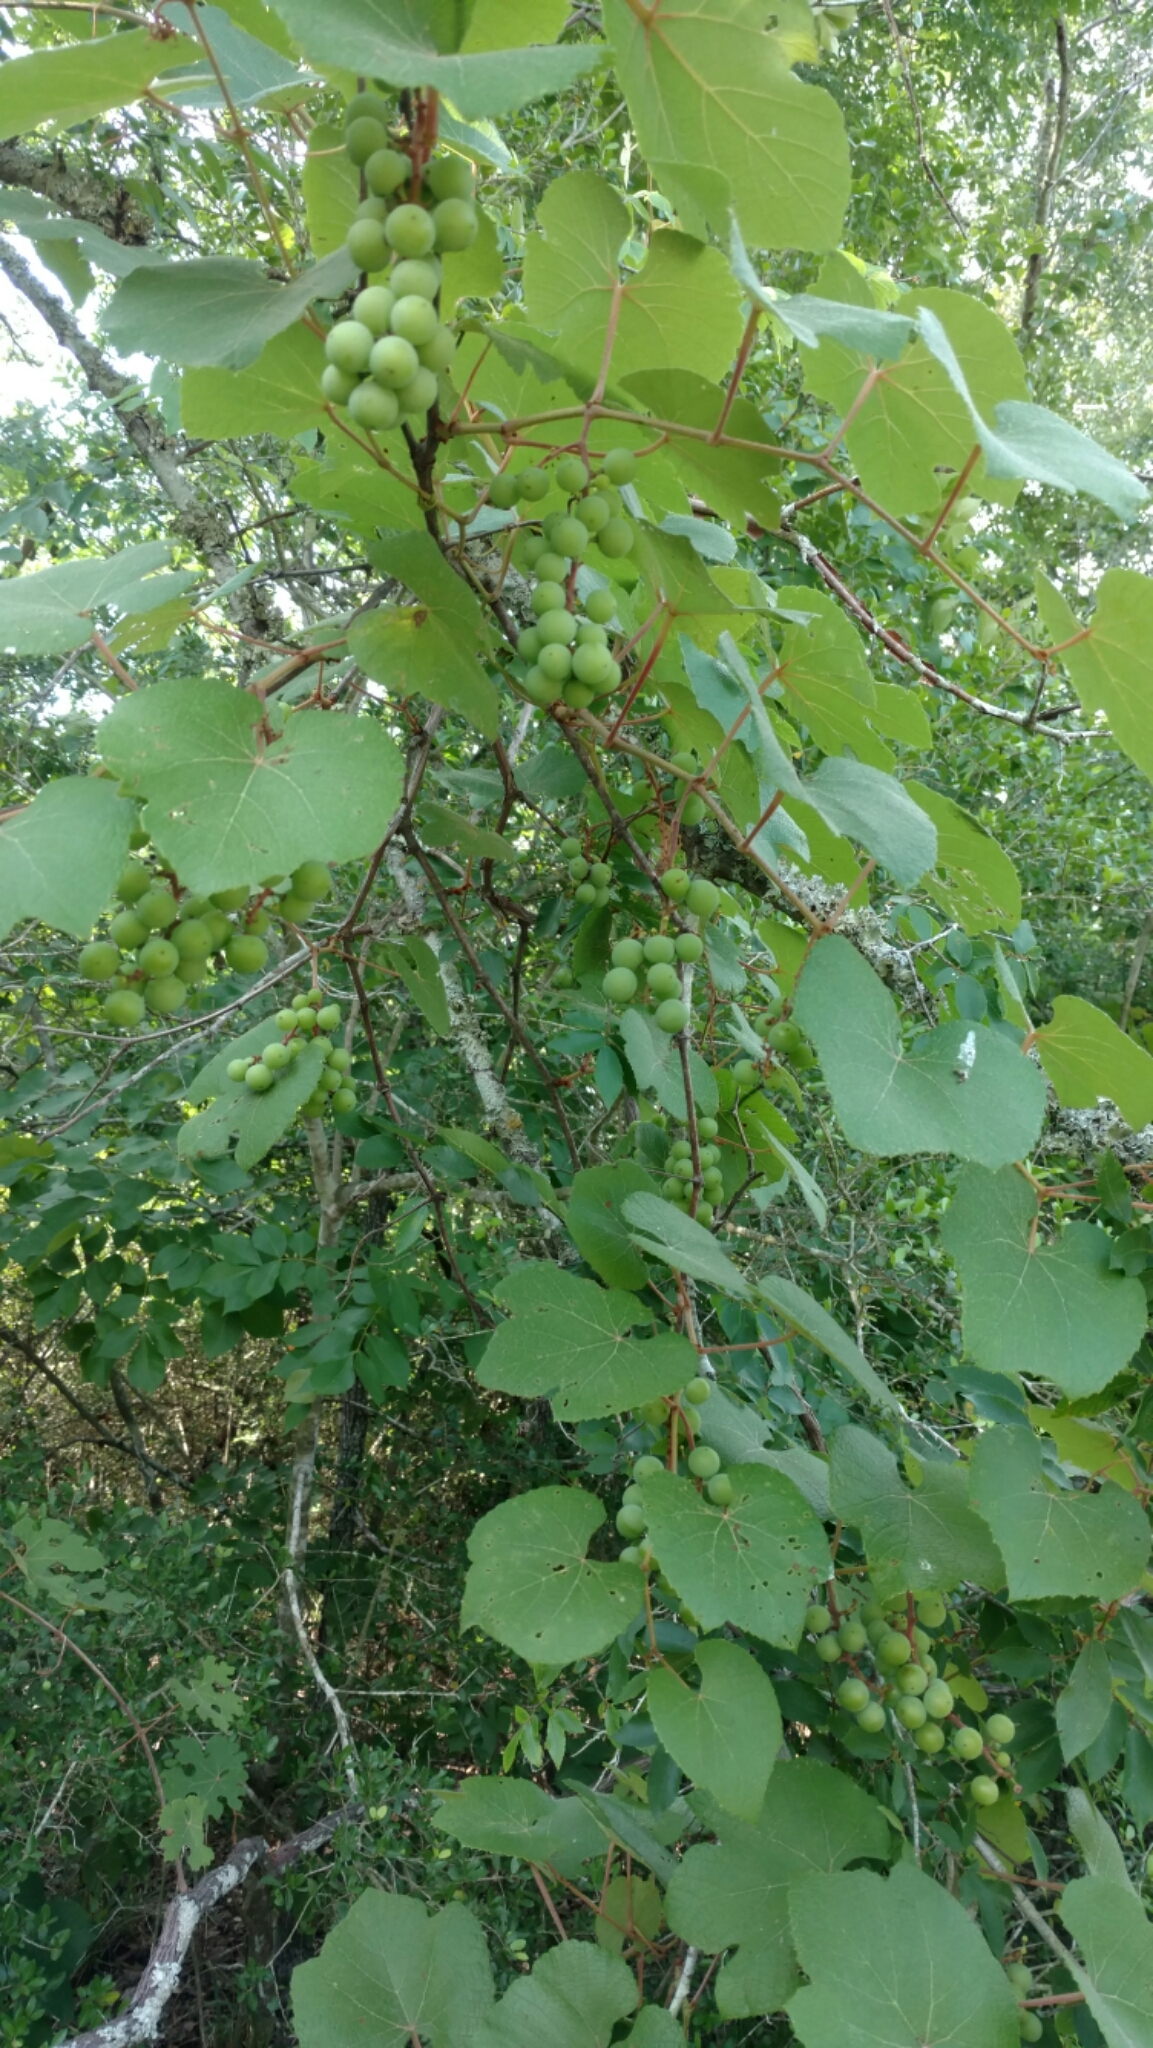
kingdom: Plantae
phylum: Tracheophyta
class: Magnoliopsida
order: Vitales
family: Vitaceae
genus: Vitis
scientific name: Vitis aestivalis
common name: Pigeon grape
